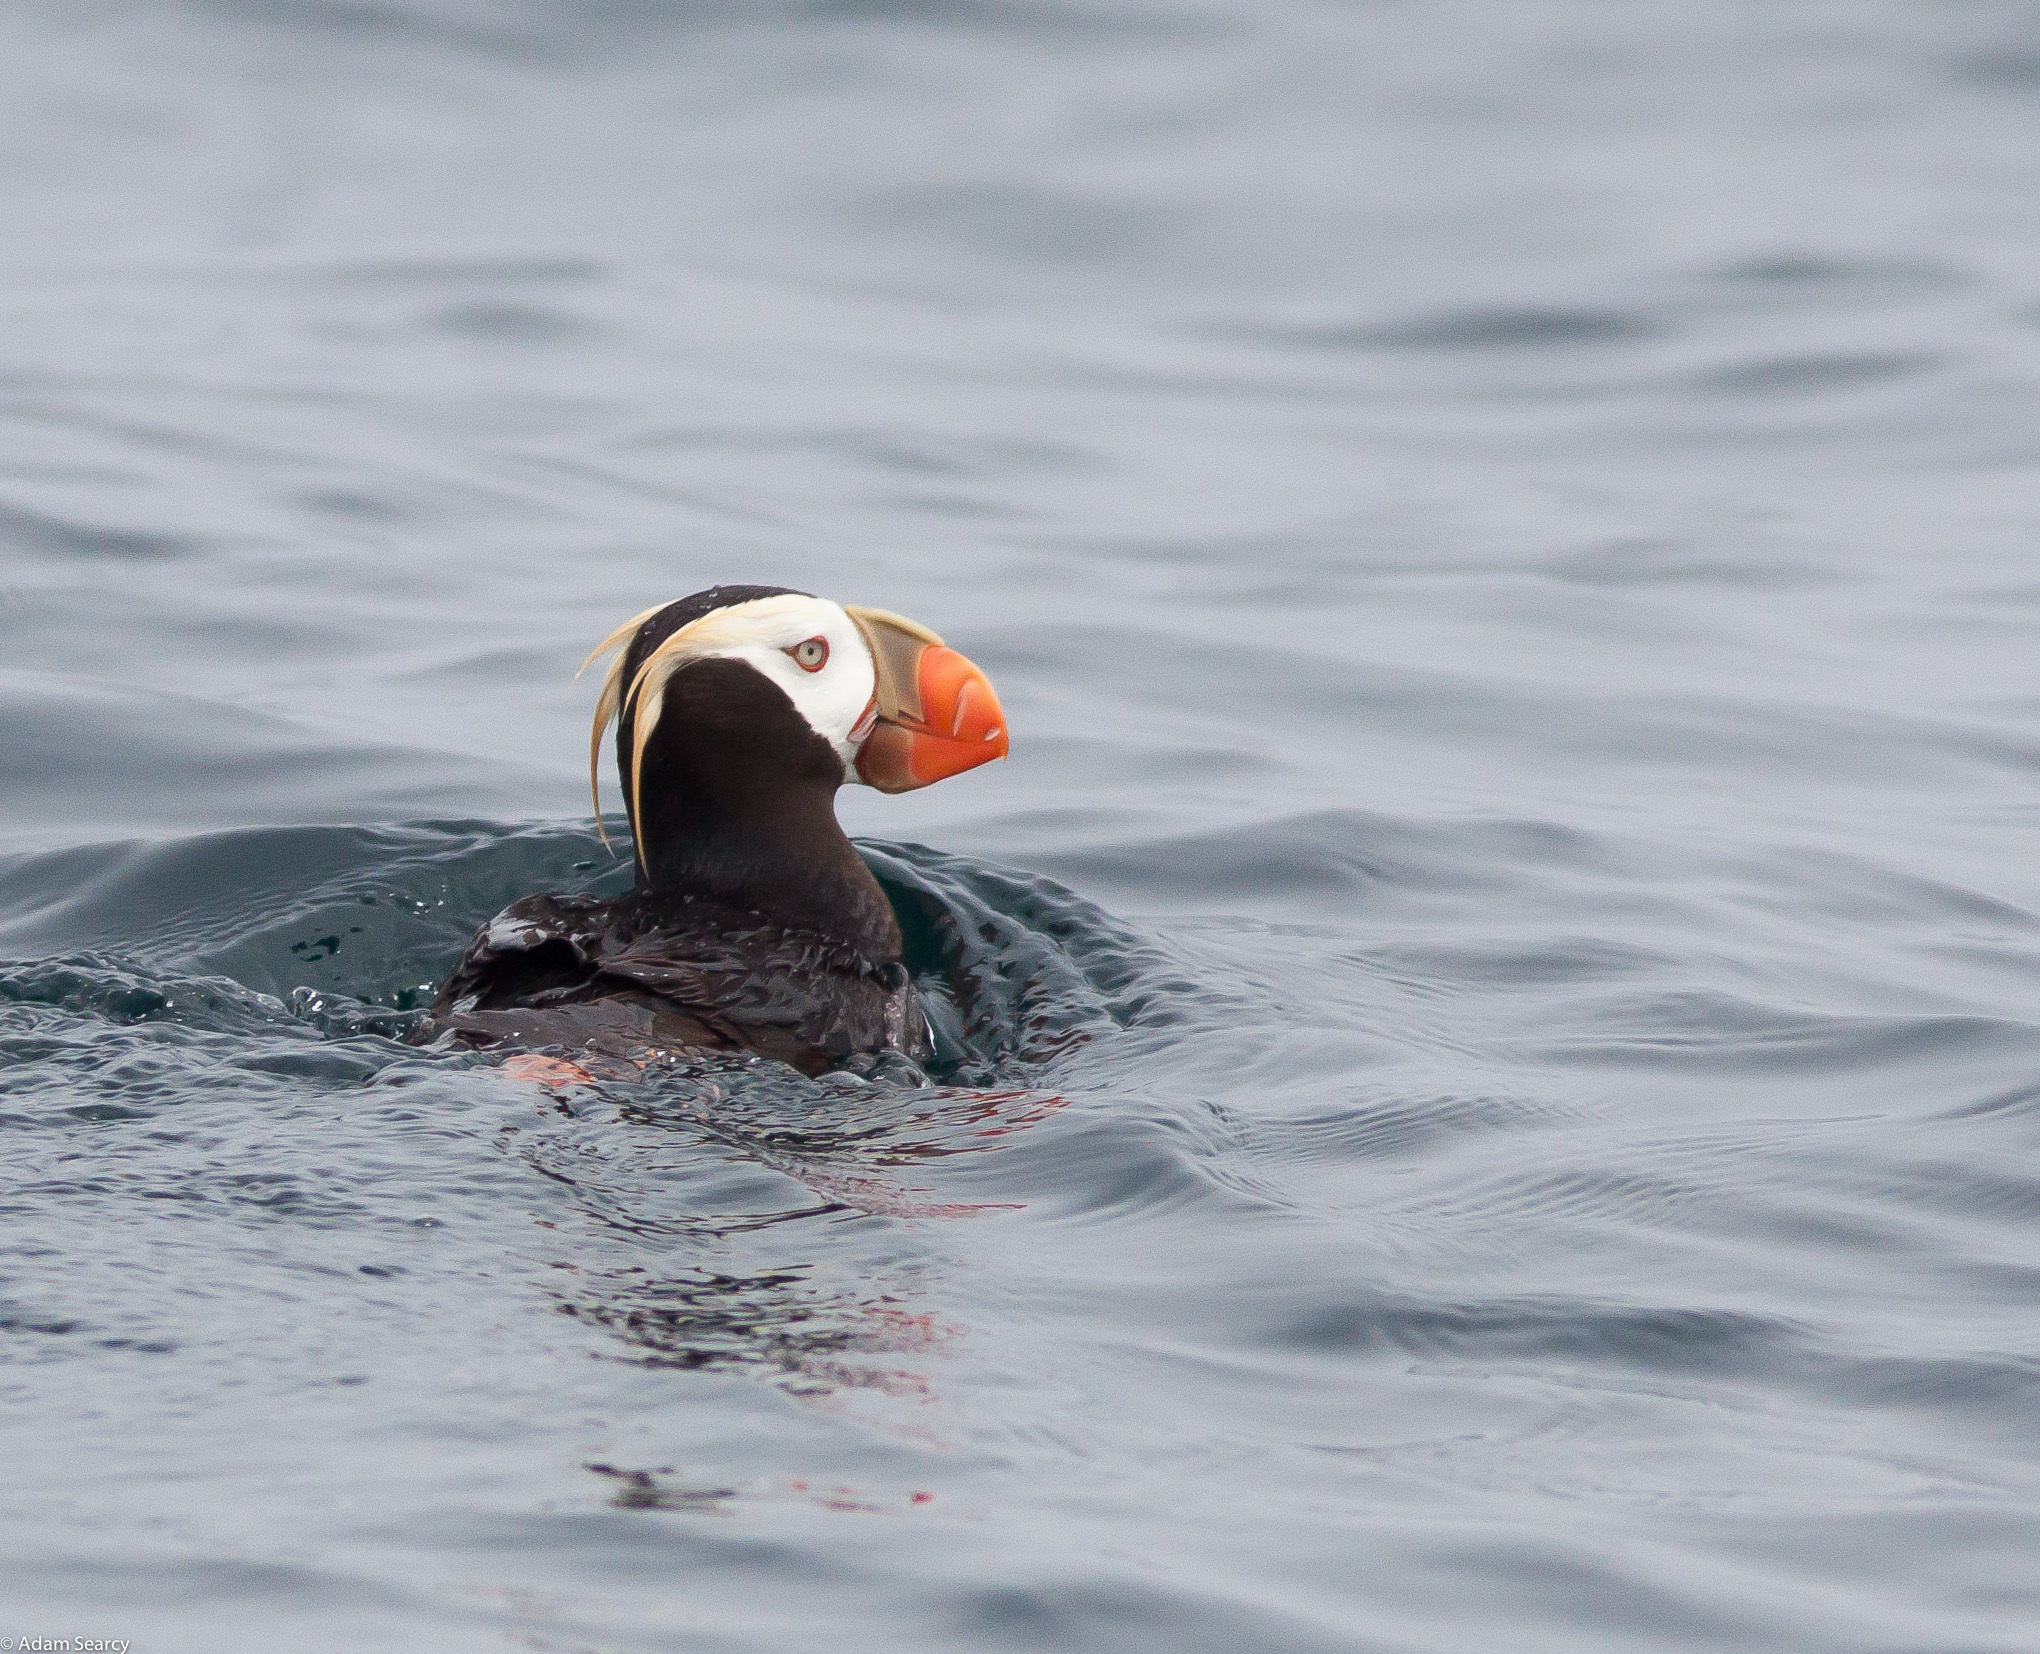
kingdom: Animalia
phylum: Chordata
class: Aves
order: Charadriiformes
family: Alcidae
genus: Fratercula
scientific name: Fratercula cirrhata
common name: Tufted puffin
